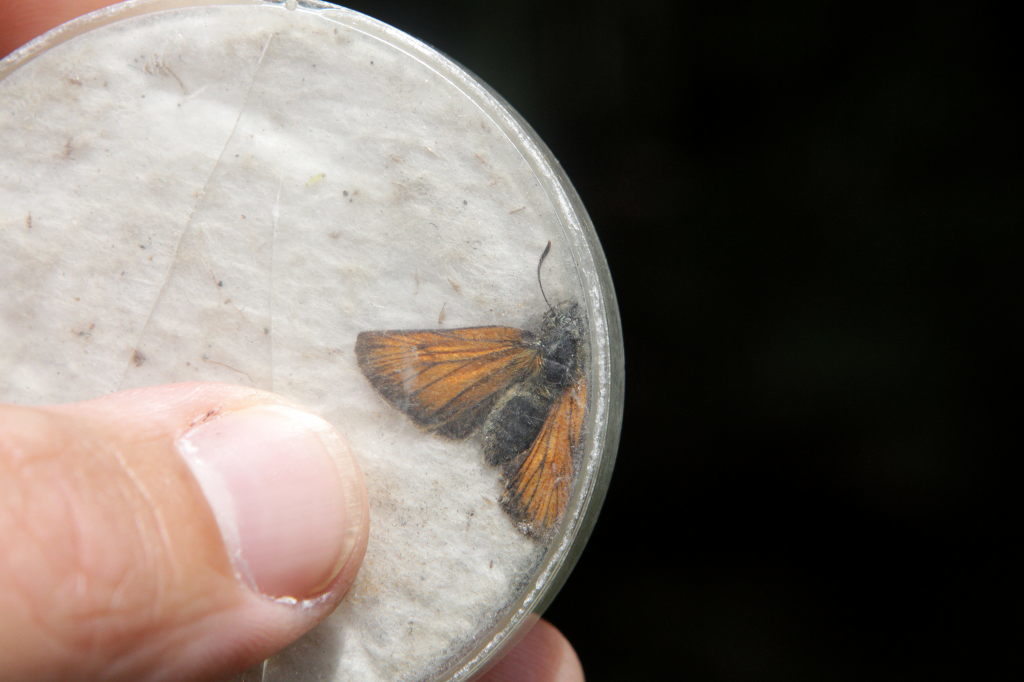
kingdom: Animalia
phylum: Arthropoda
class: Insecta
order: Lepidoptera
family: Hesperiidae
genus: Thymelicus
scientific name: Thymelicus sylvestris
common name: Small skipper
